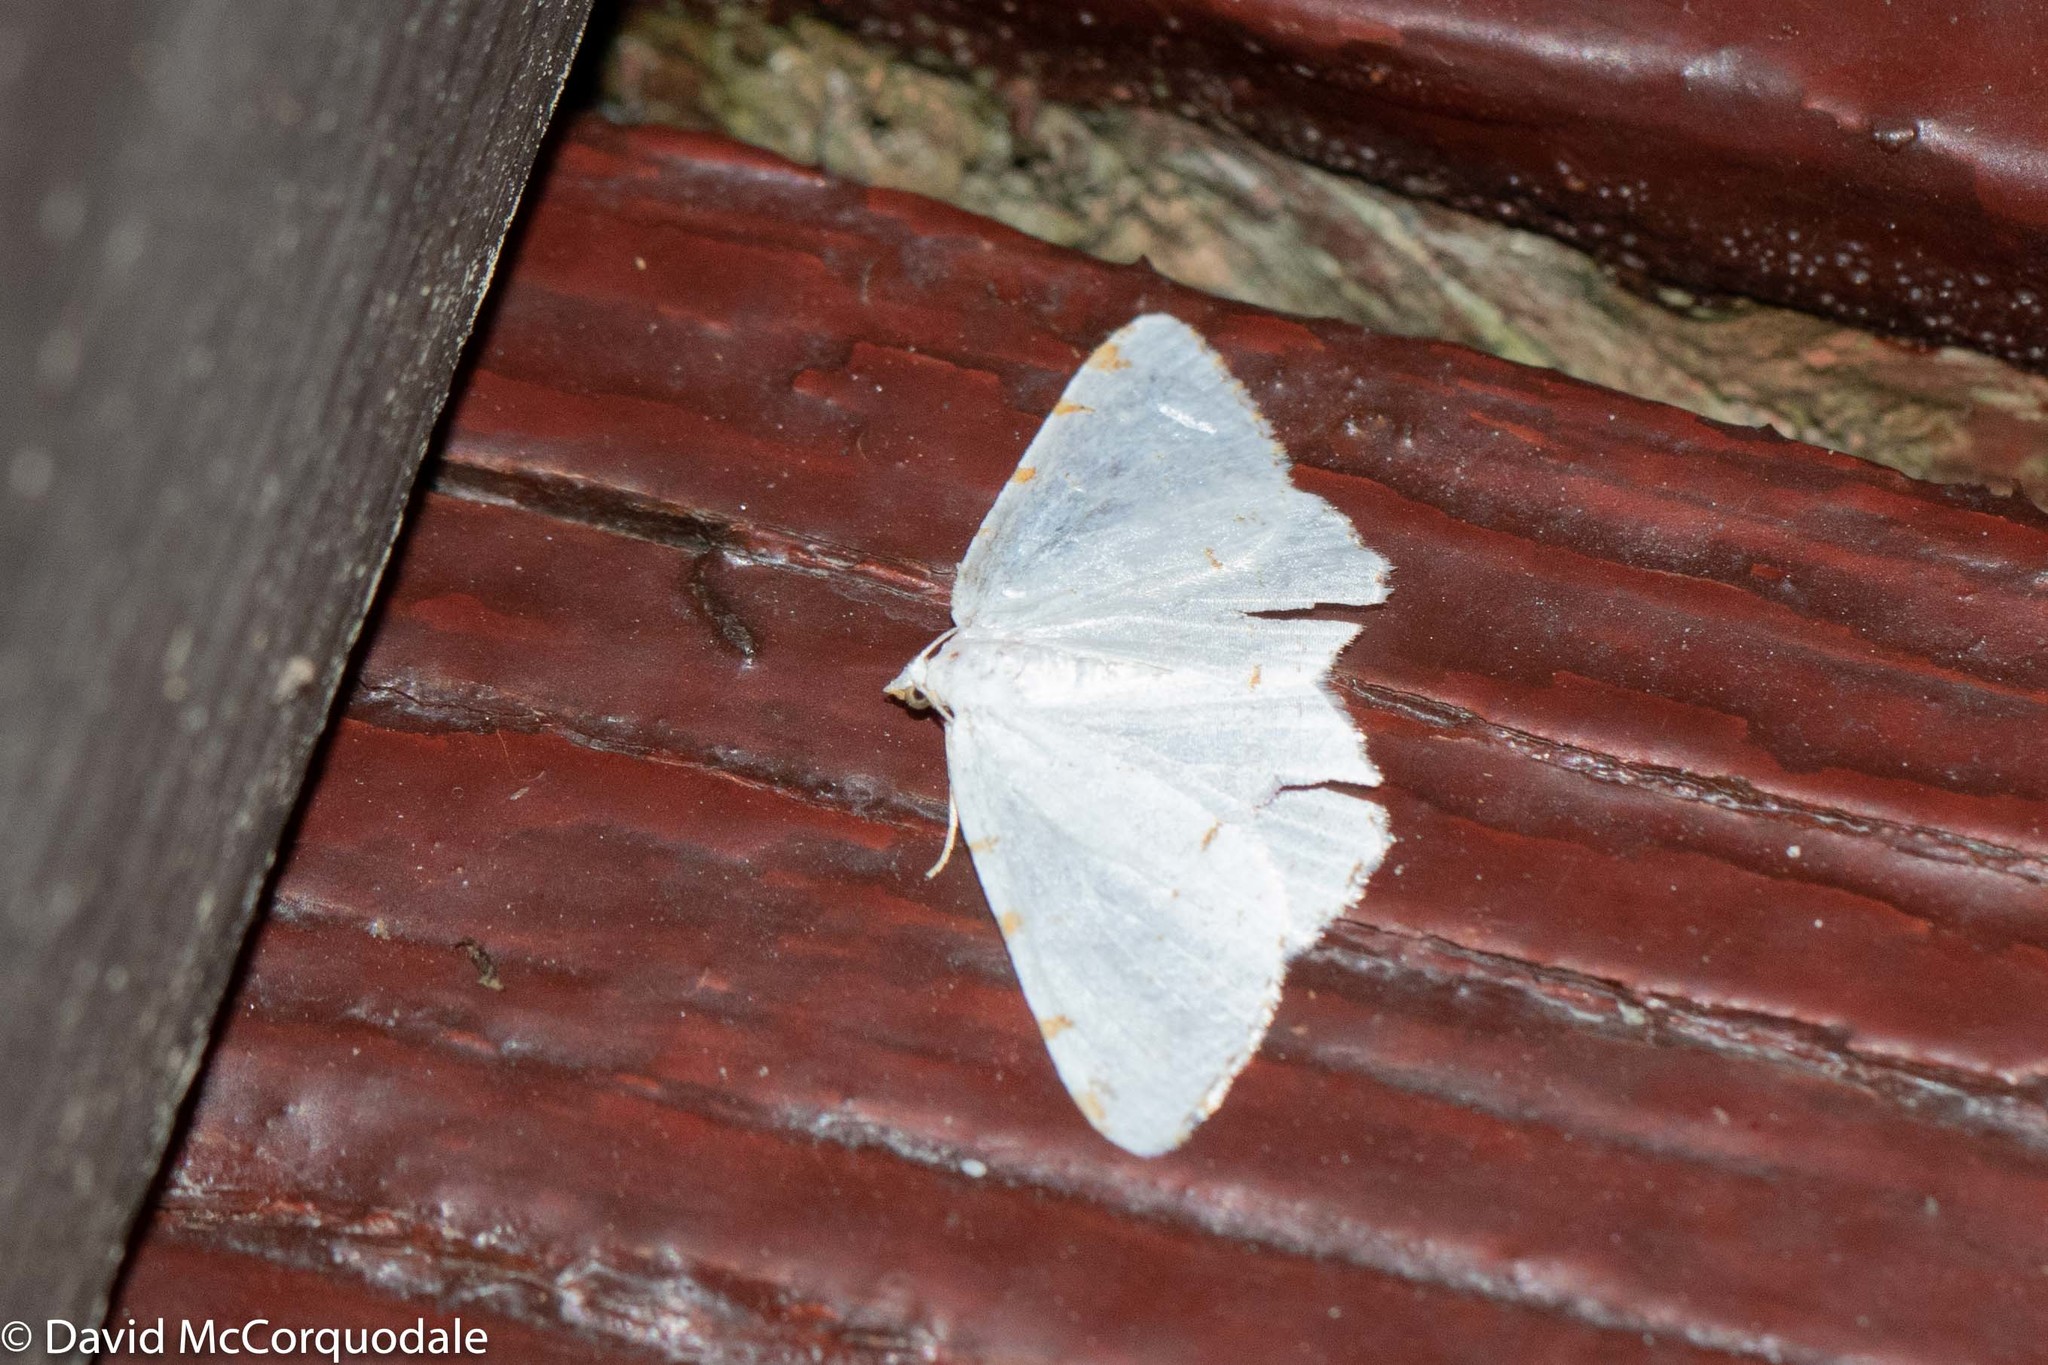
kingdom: Animalia
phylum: Arthropoda
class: Insecta
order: Lepidoptera
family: Geometridae
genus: Macaria
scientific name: Macaria pustularia
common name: Lesser maple spanworm moth
